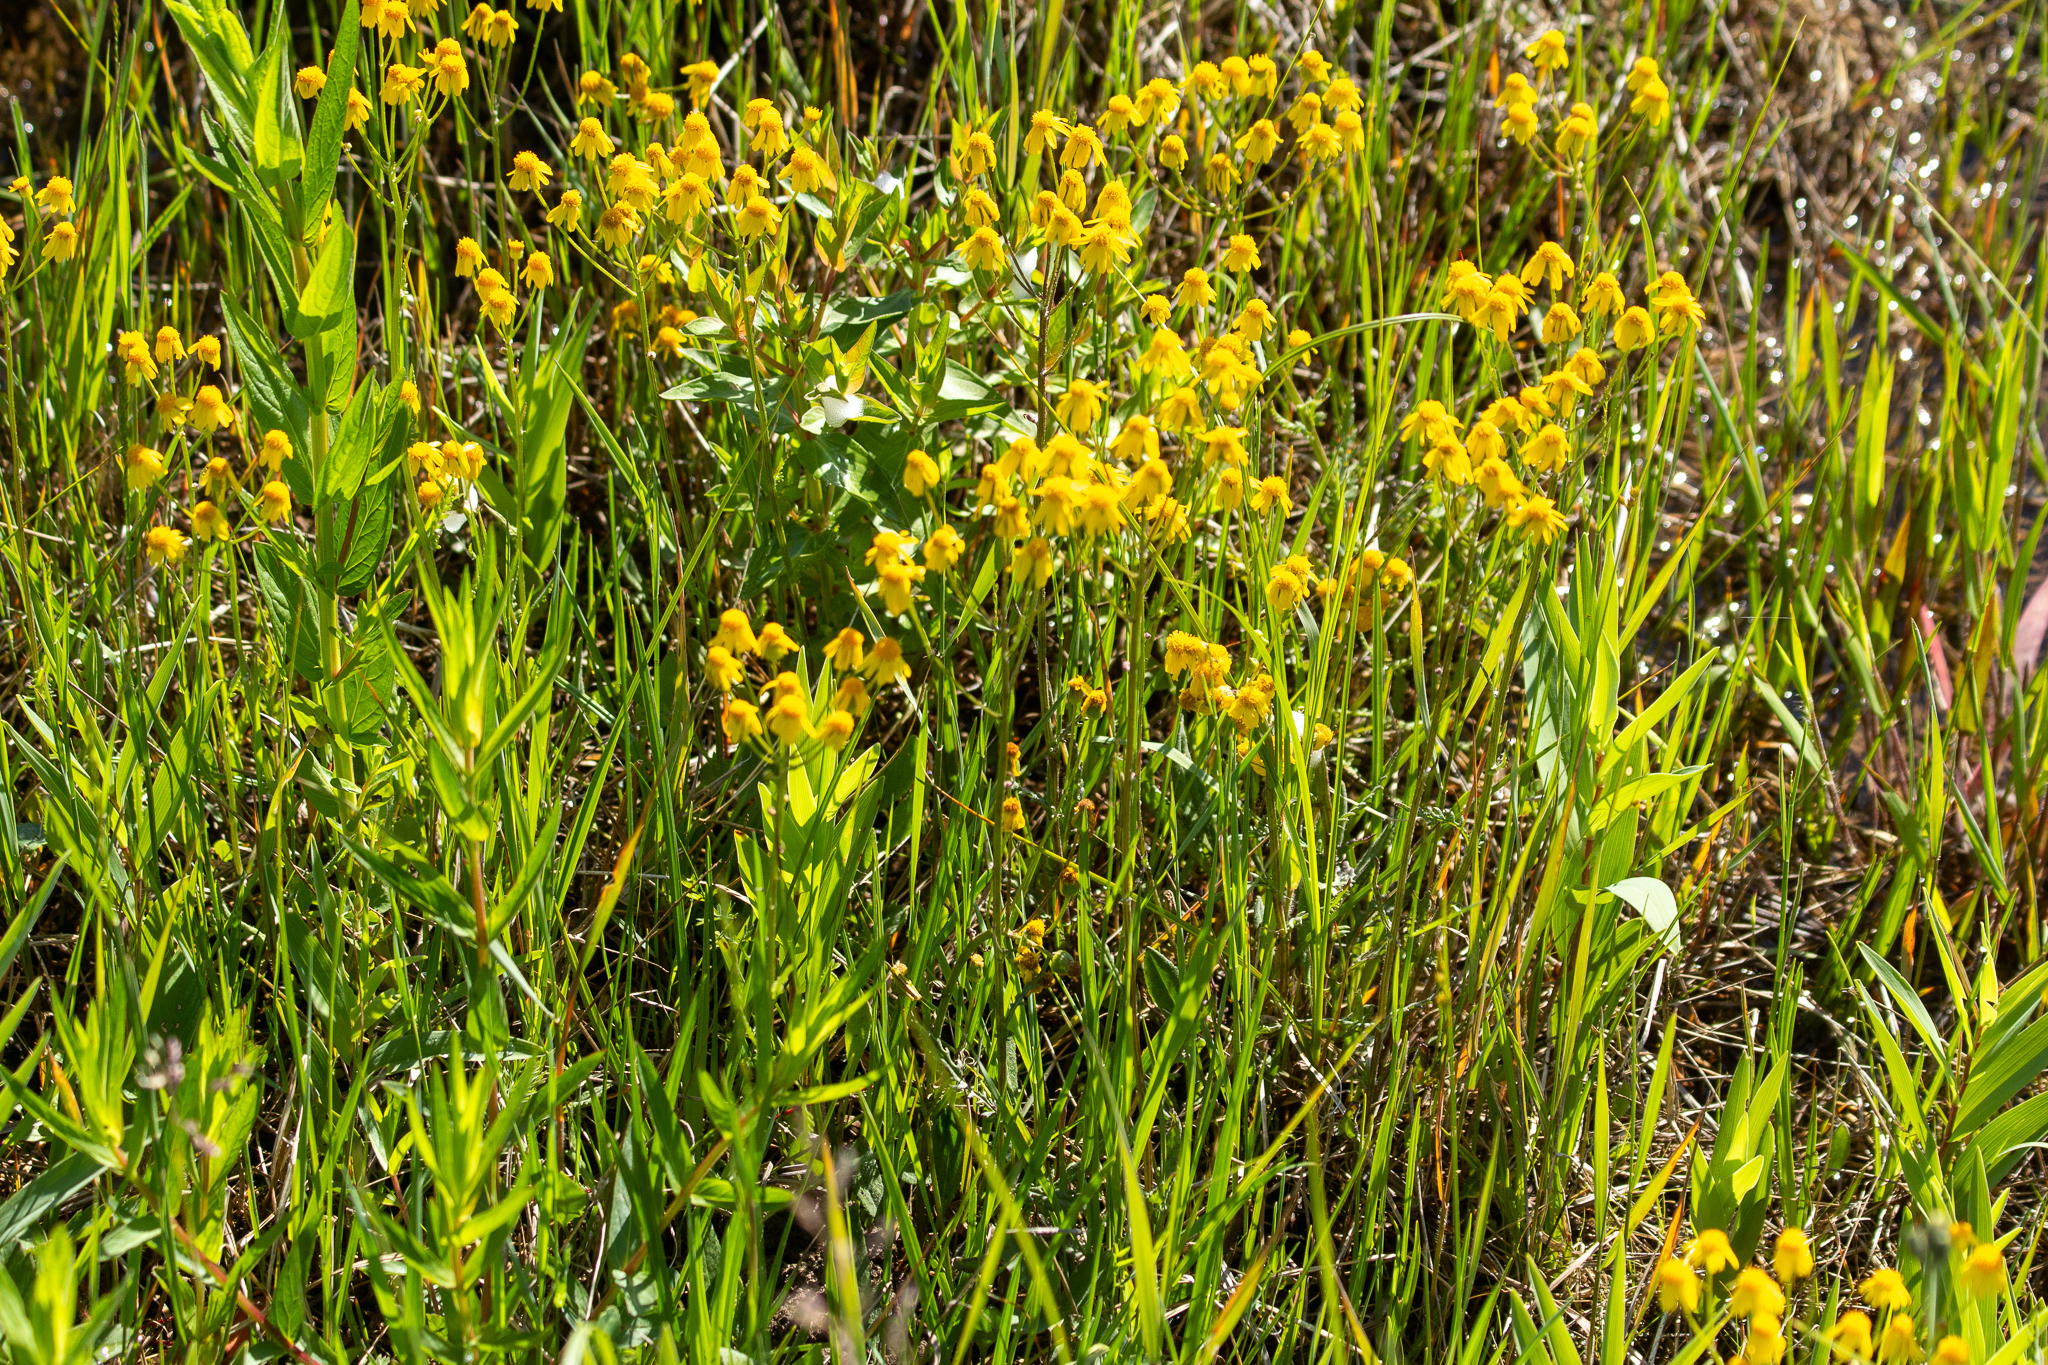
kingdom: Plantae
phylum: Tracheophyta
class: Magnoliopsida
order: Asterales
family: Asteraceae
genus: Packera
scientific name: Packera paupercula
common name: Balsam groundsel
